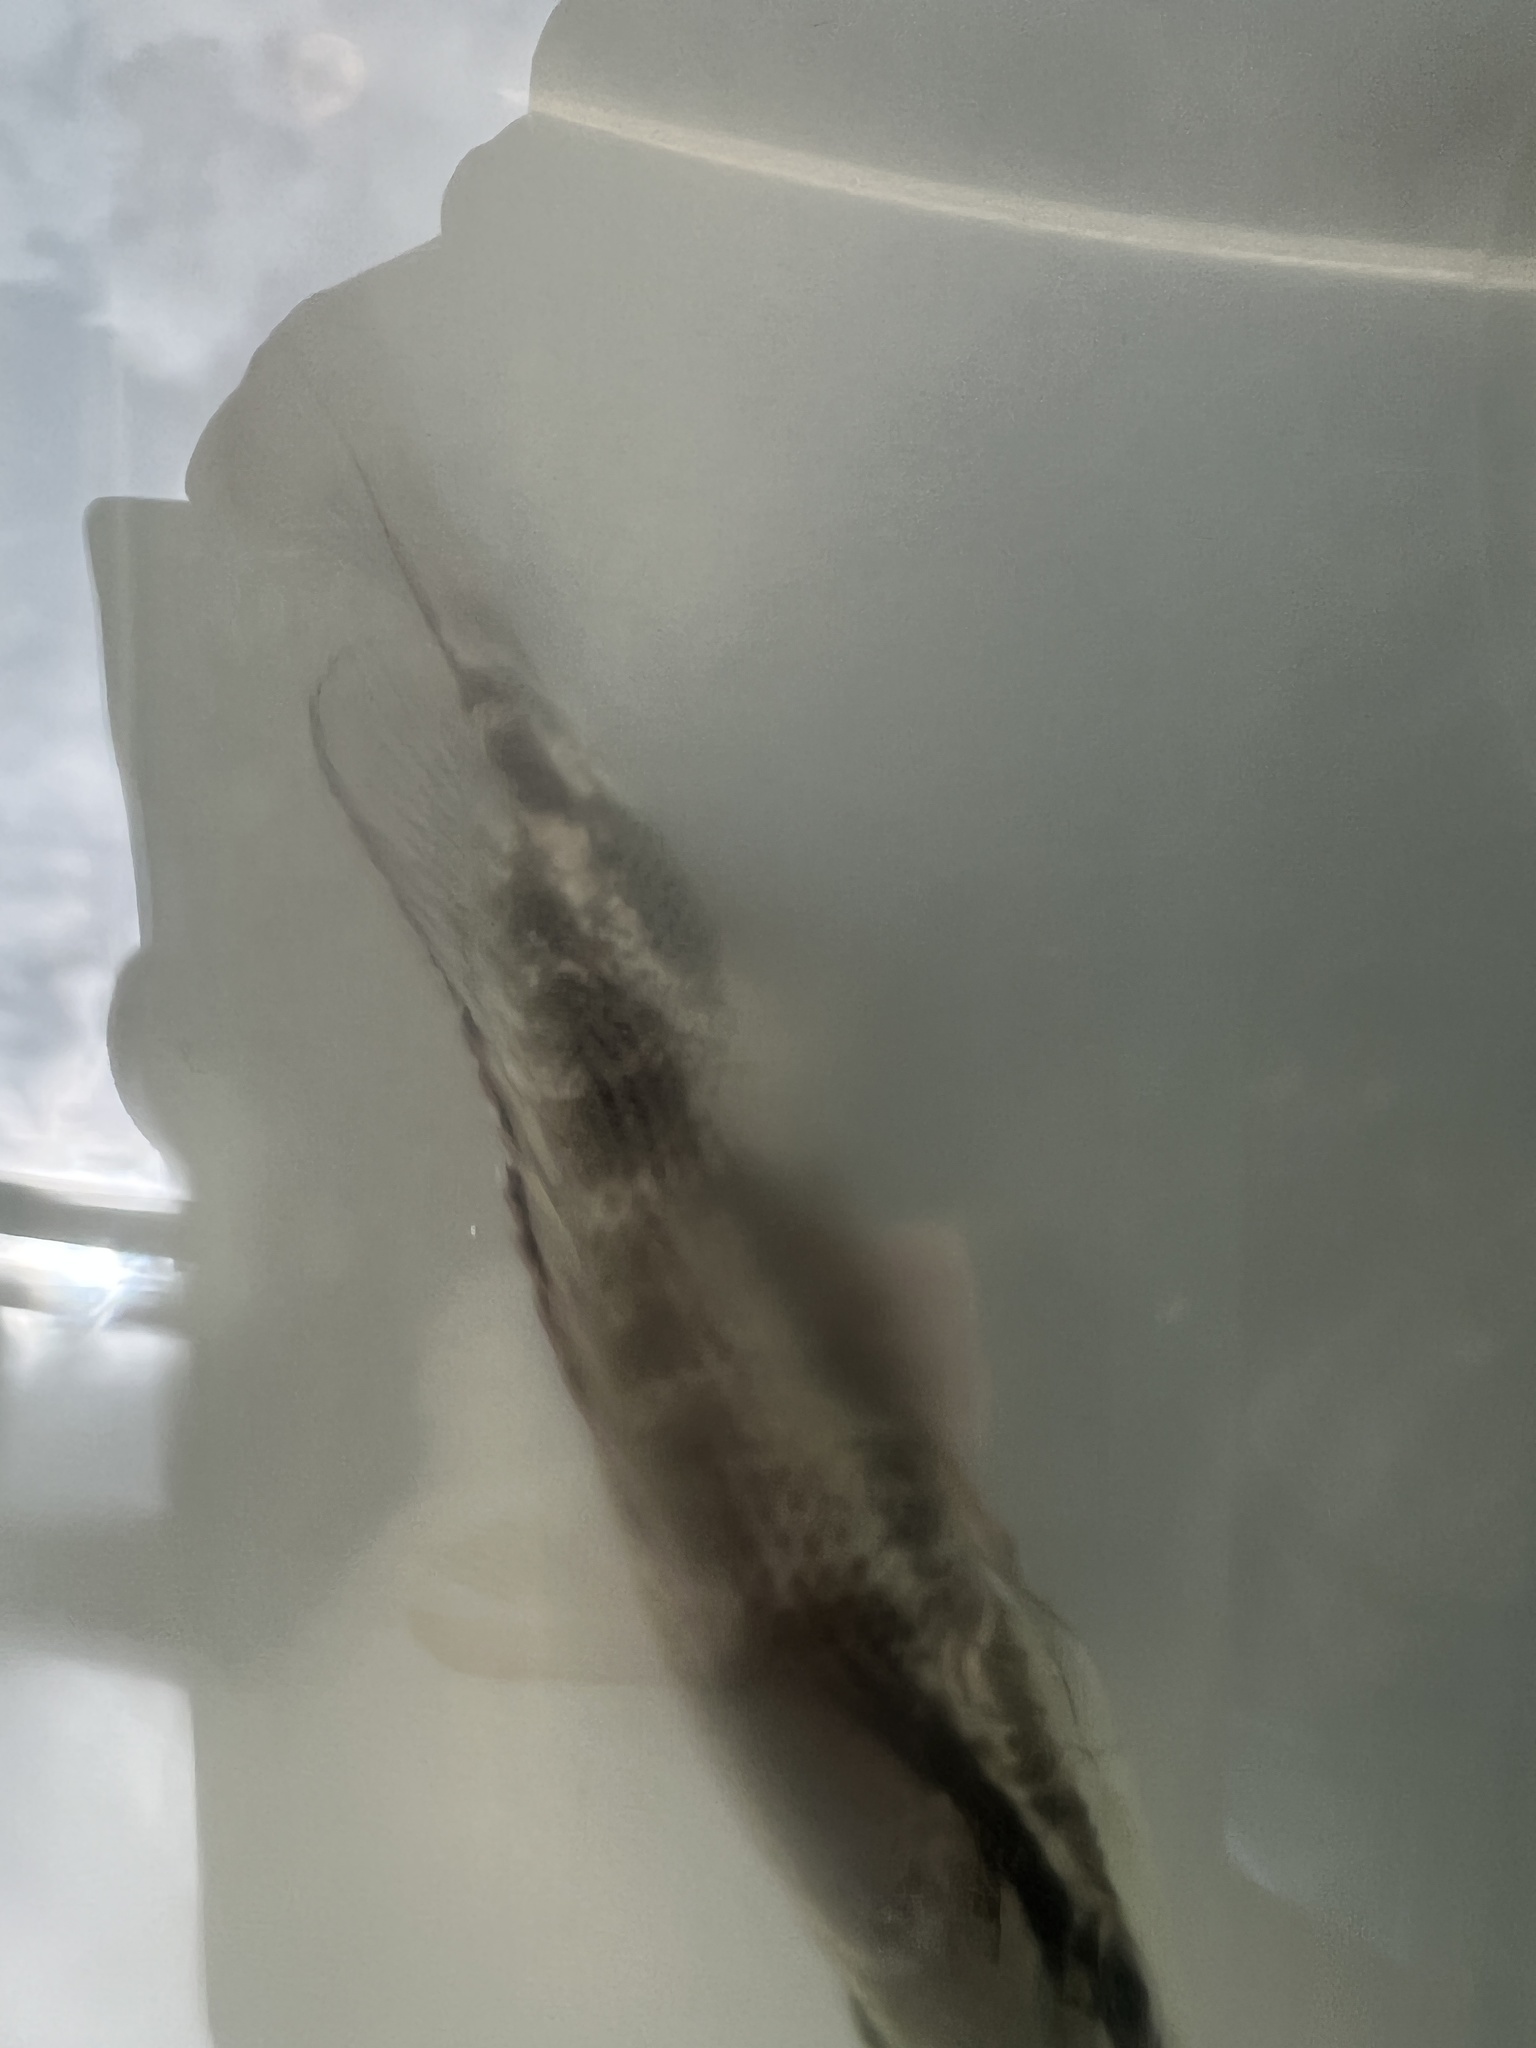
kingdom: Animalia
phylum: Chordata
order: Perciformes
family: Lutjanidae
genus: Lutjanus
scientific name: Lutjanus griseus
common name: Gray snapper
